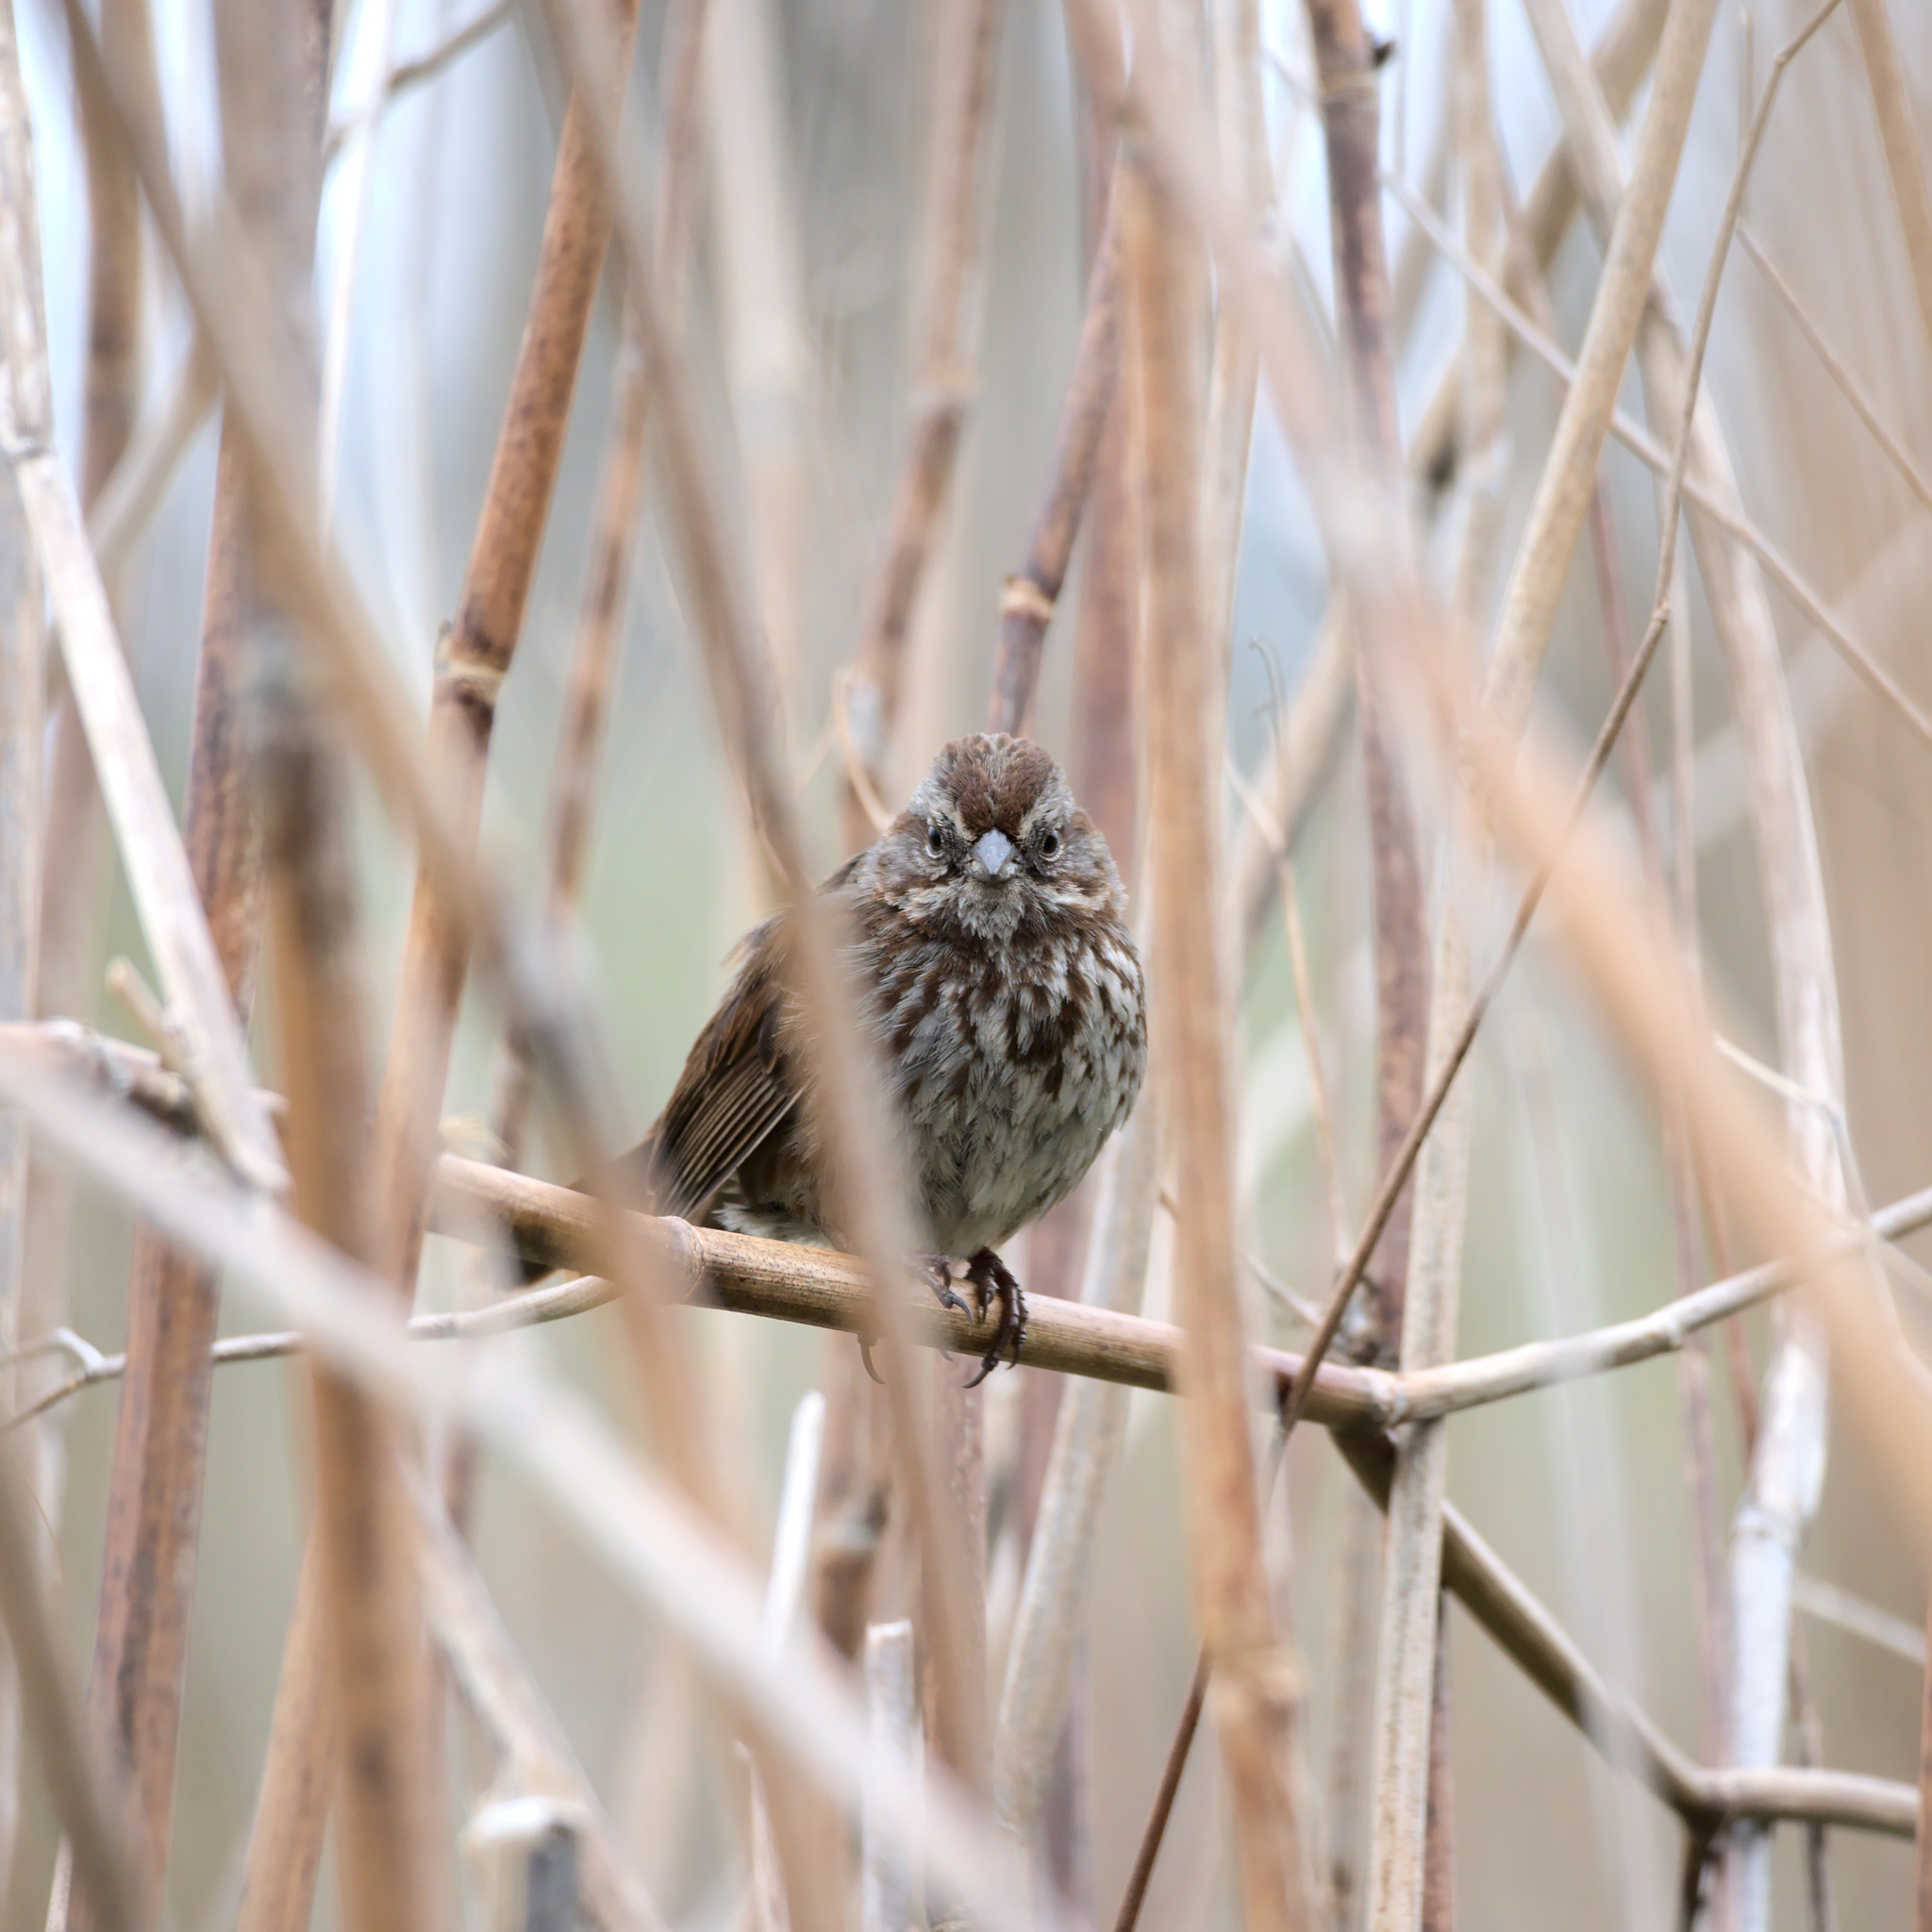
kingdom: Animalia
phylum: Chordata
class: Aves
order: Passeriformes
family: Passerellidae
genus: Melospiza
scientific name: Melospiza melodia
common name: Song sparrow
